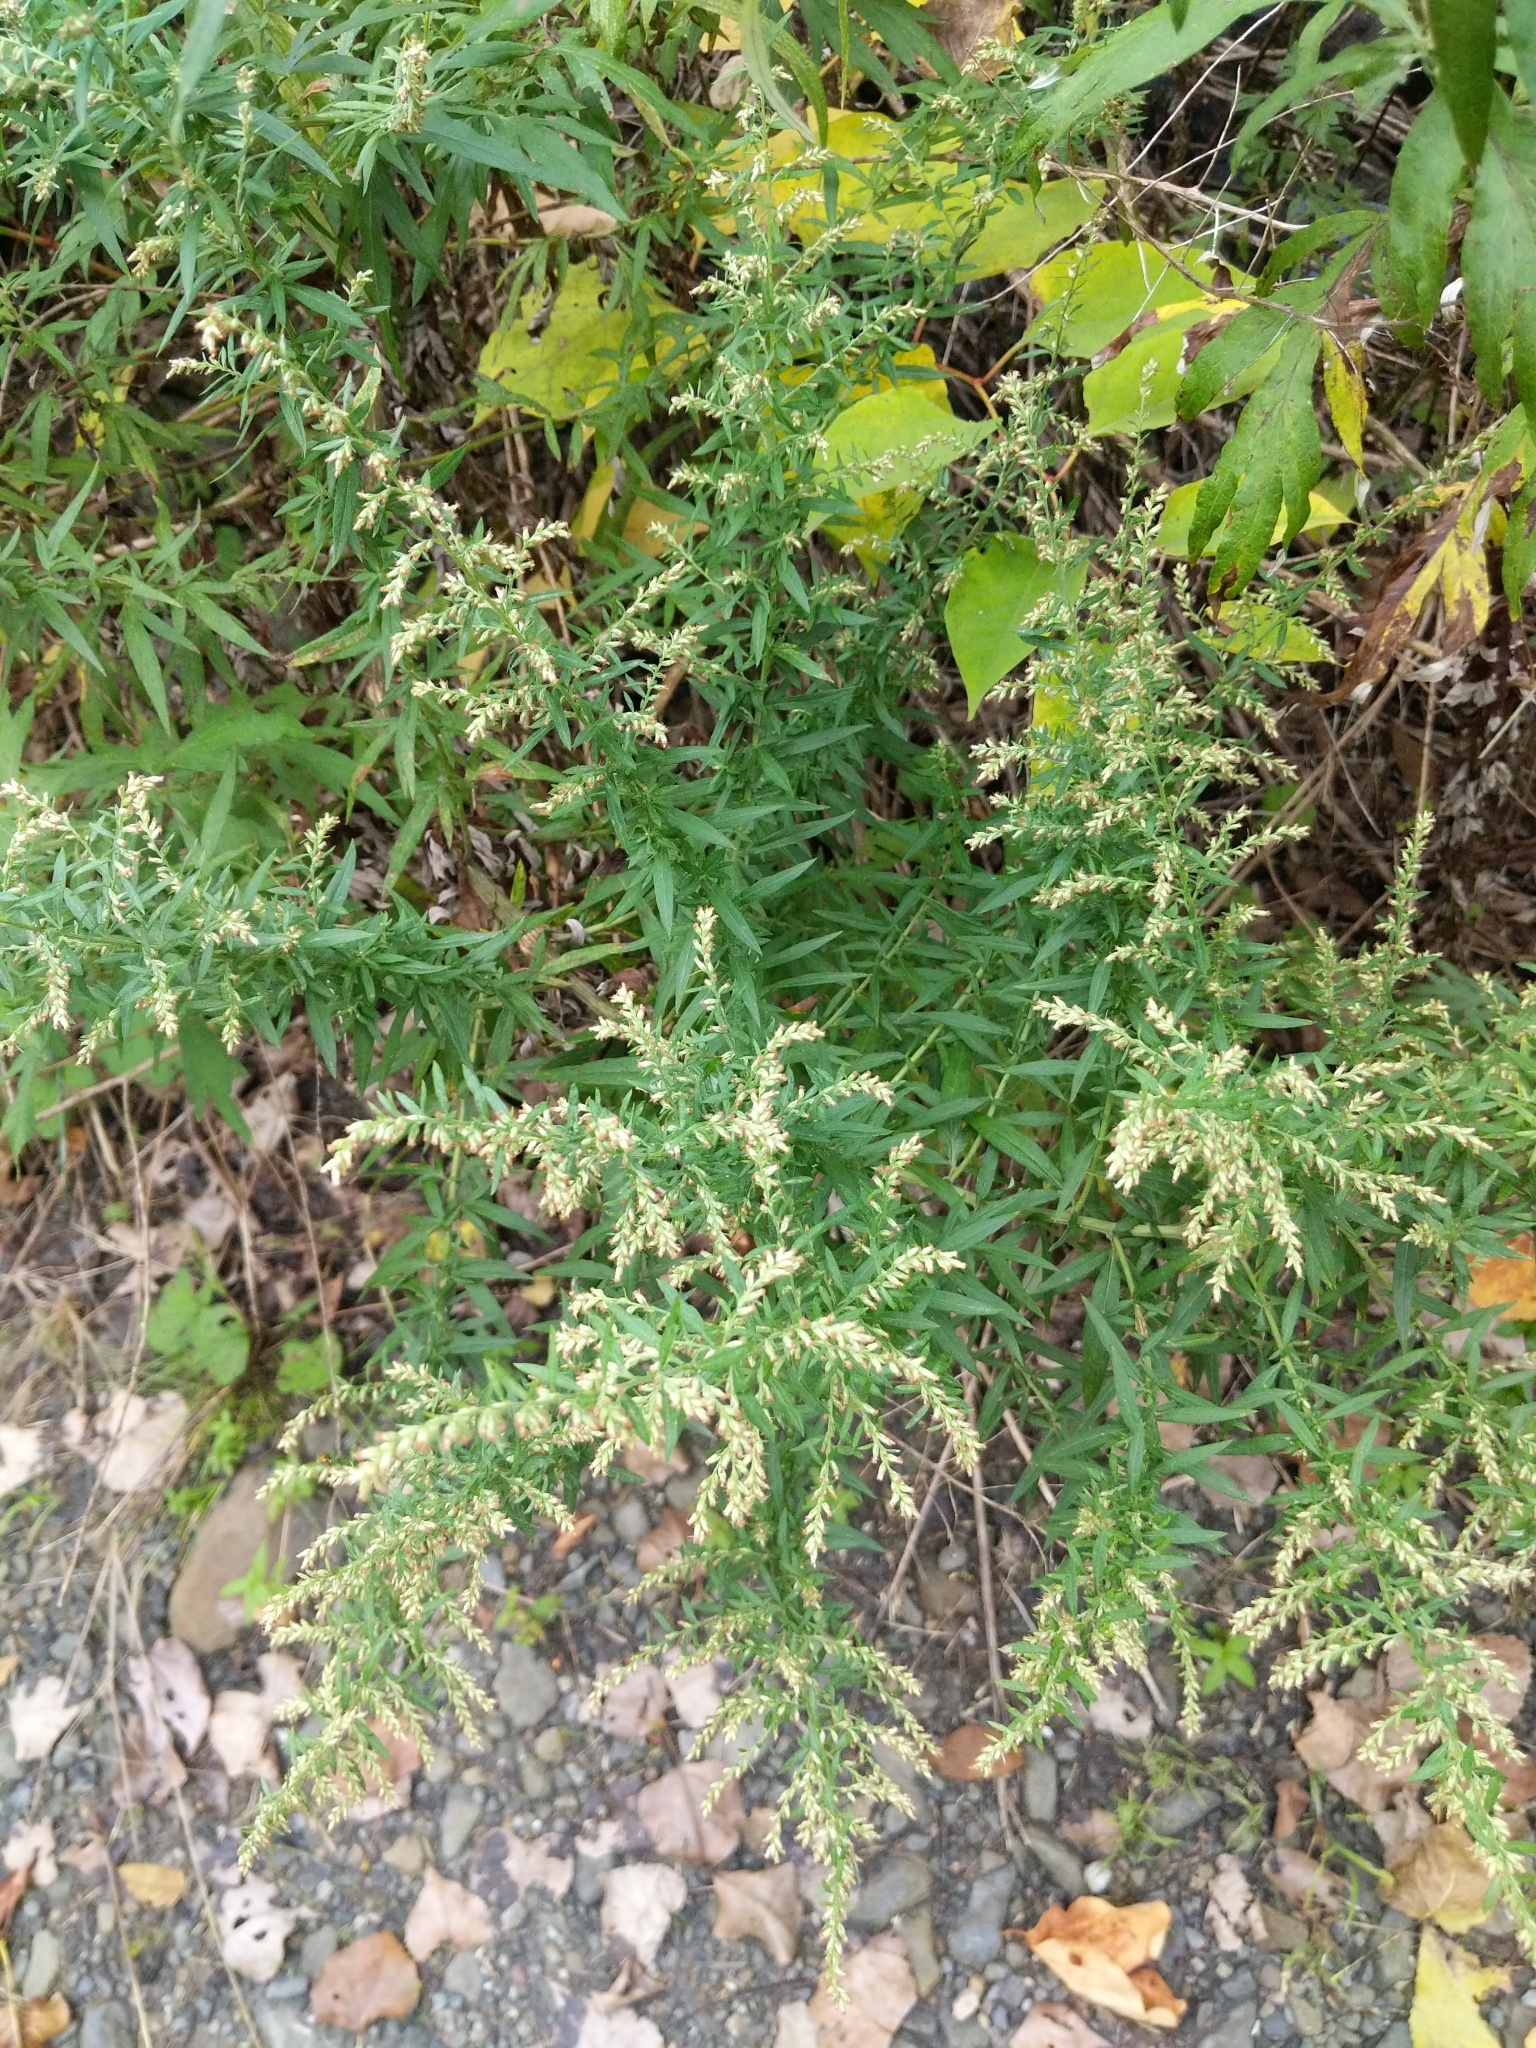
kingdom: Plantae
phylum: Tracheophyta
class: Magnoliopsida
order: Asterales
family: Asteraceae
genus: Artemisia
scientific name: Artemisia vulgaris
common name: Mugwort
